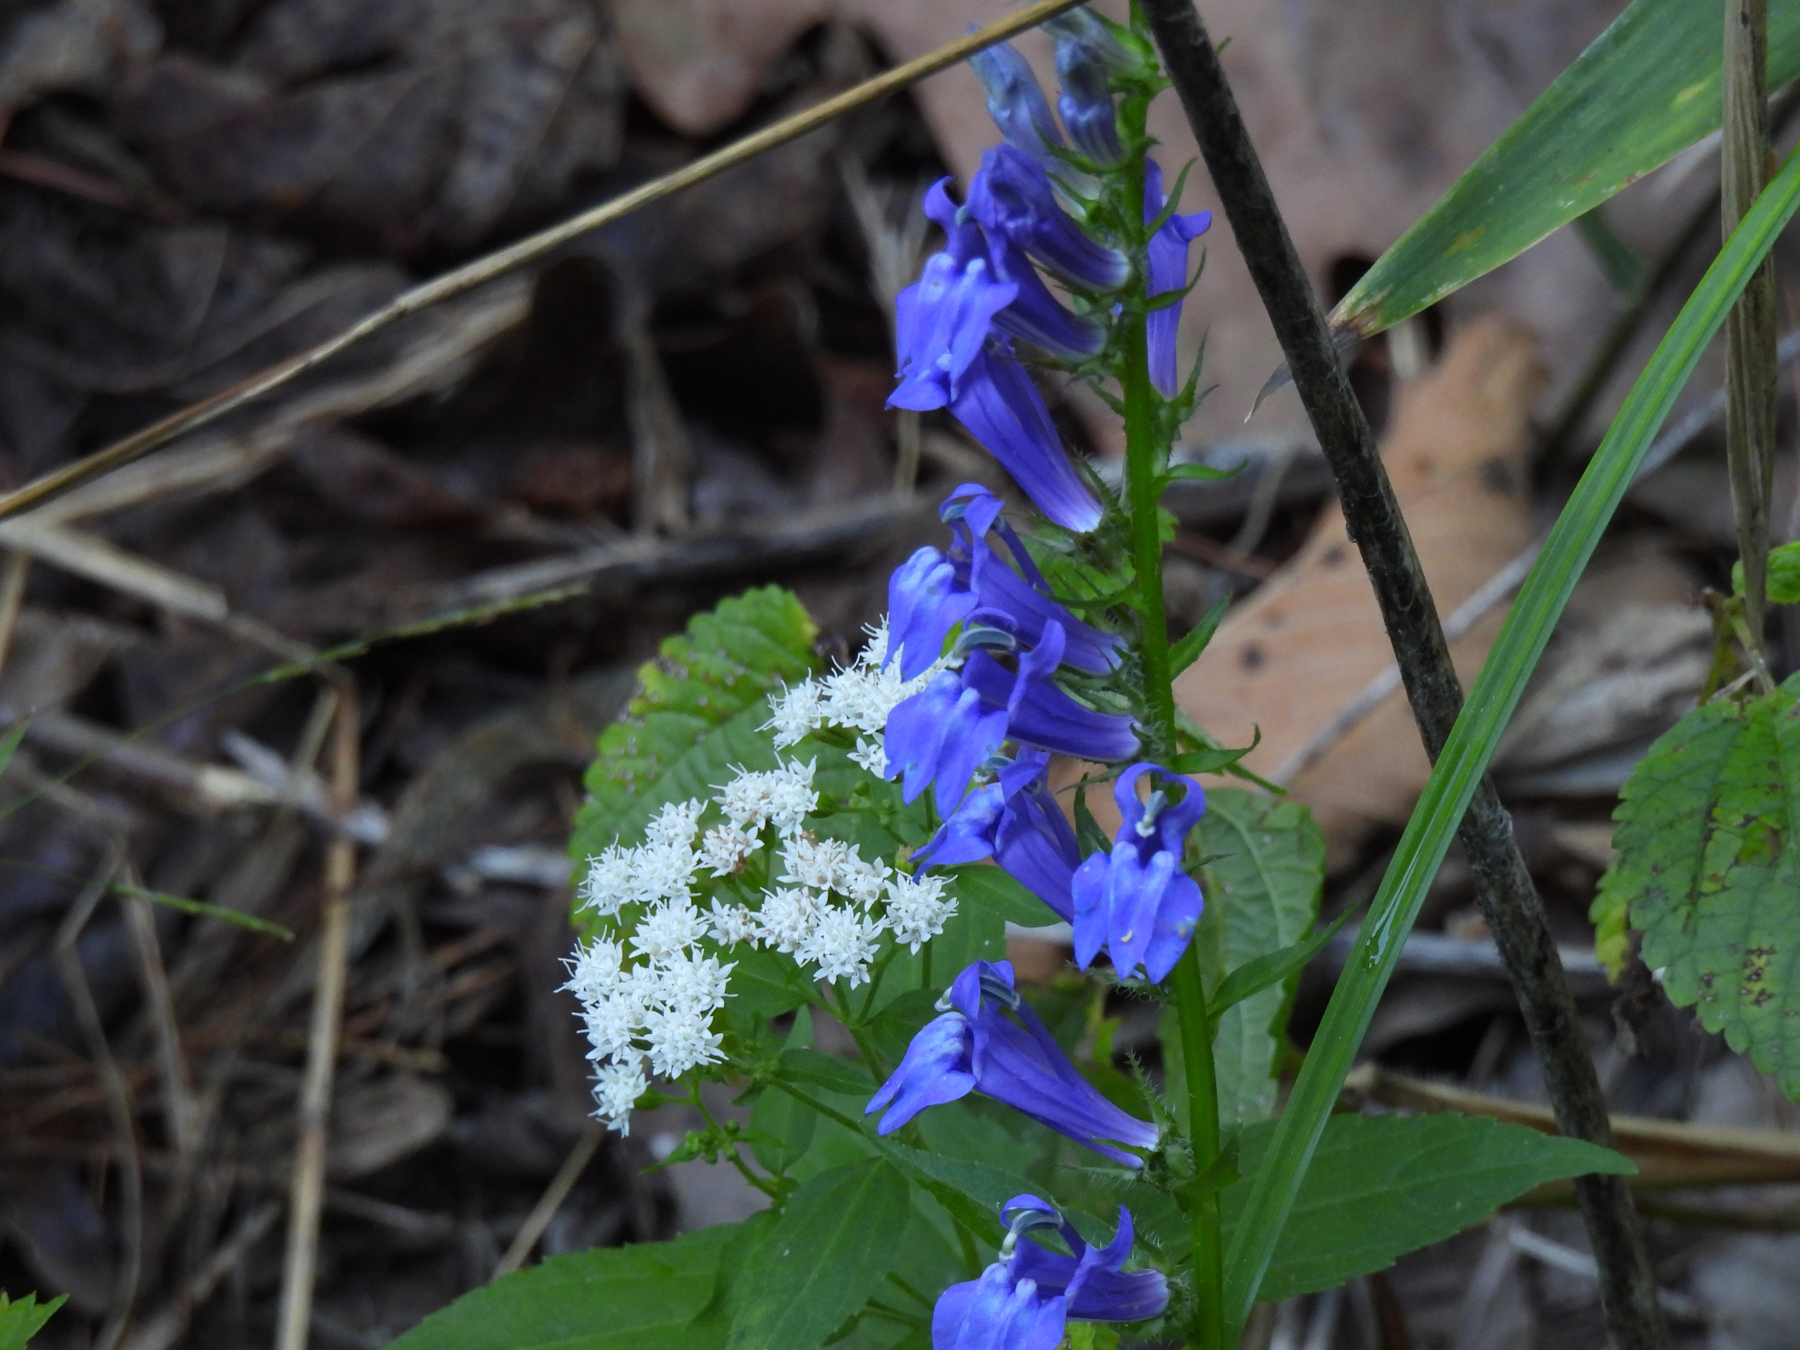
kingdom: Plantae
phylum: Tracheophyta
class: Magnoliopsida
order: Asterales
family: Campanulaceae
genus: Lobelia
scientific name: Lobelia siphilitica
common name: Great lobelia
